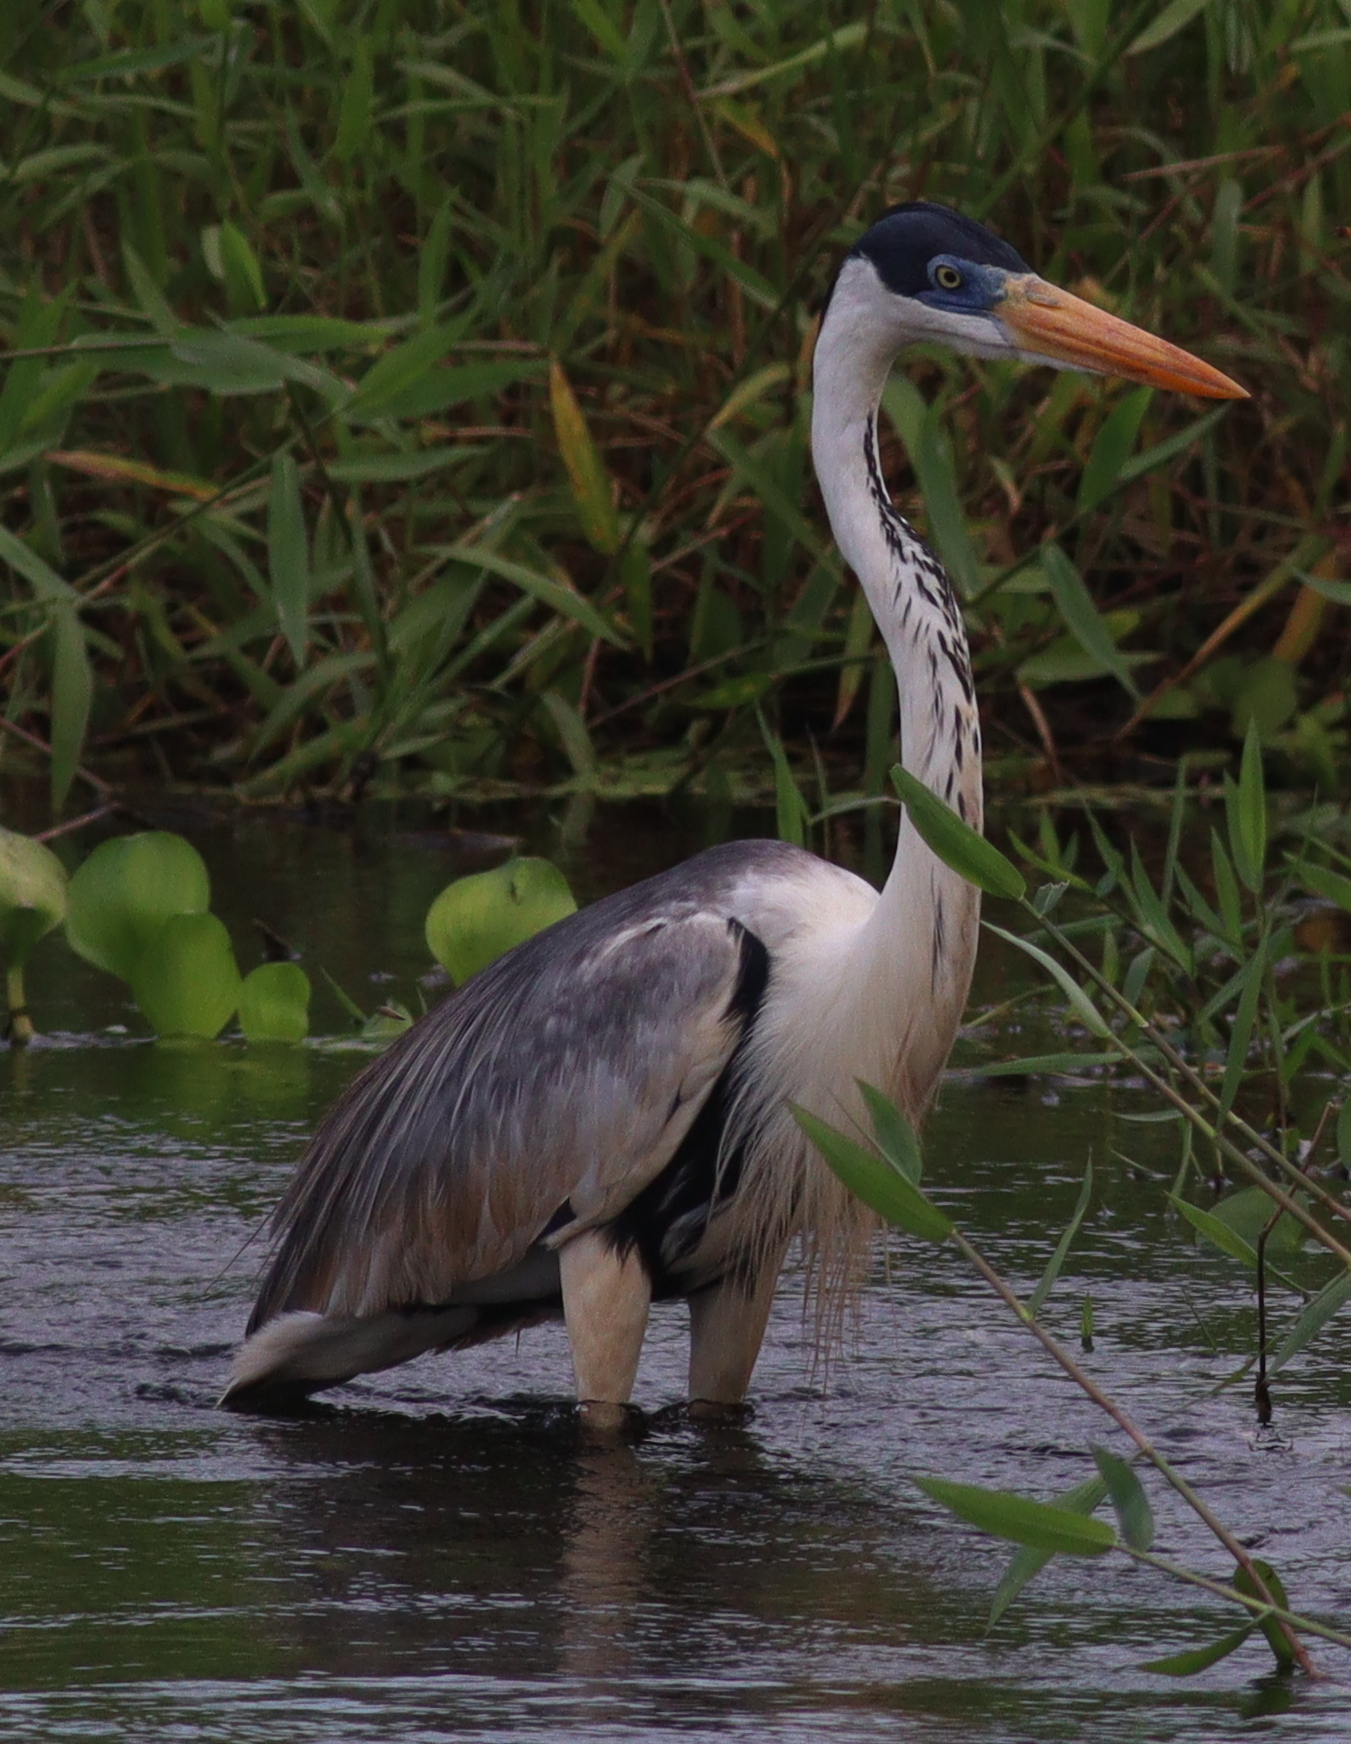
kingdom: Animalia
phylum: Chordata
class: Aves
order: Pelecaniformes
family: Ardeidae
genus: Ardea
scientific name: Ardea cocoi
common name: Cocoi heron
